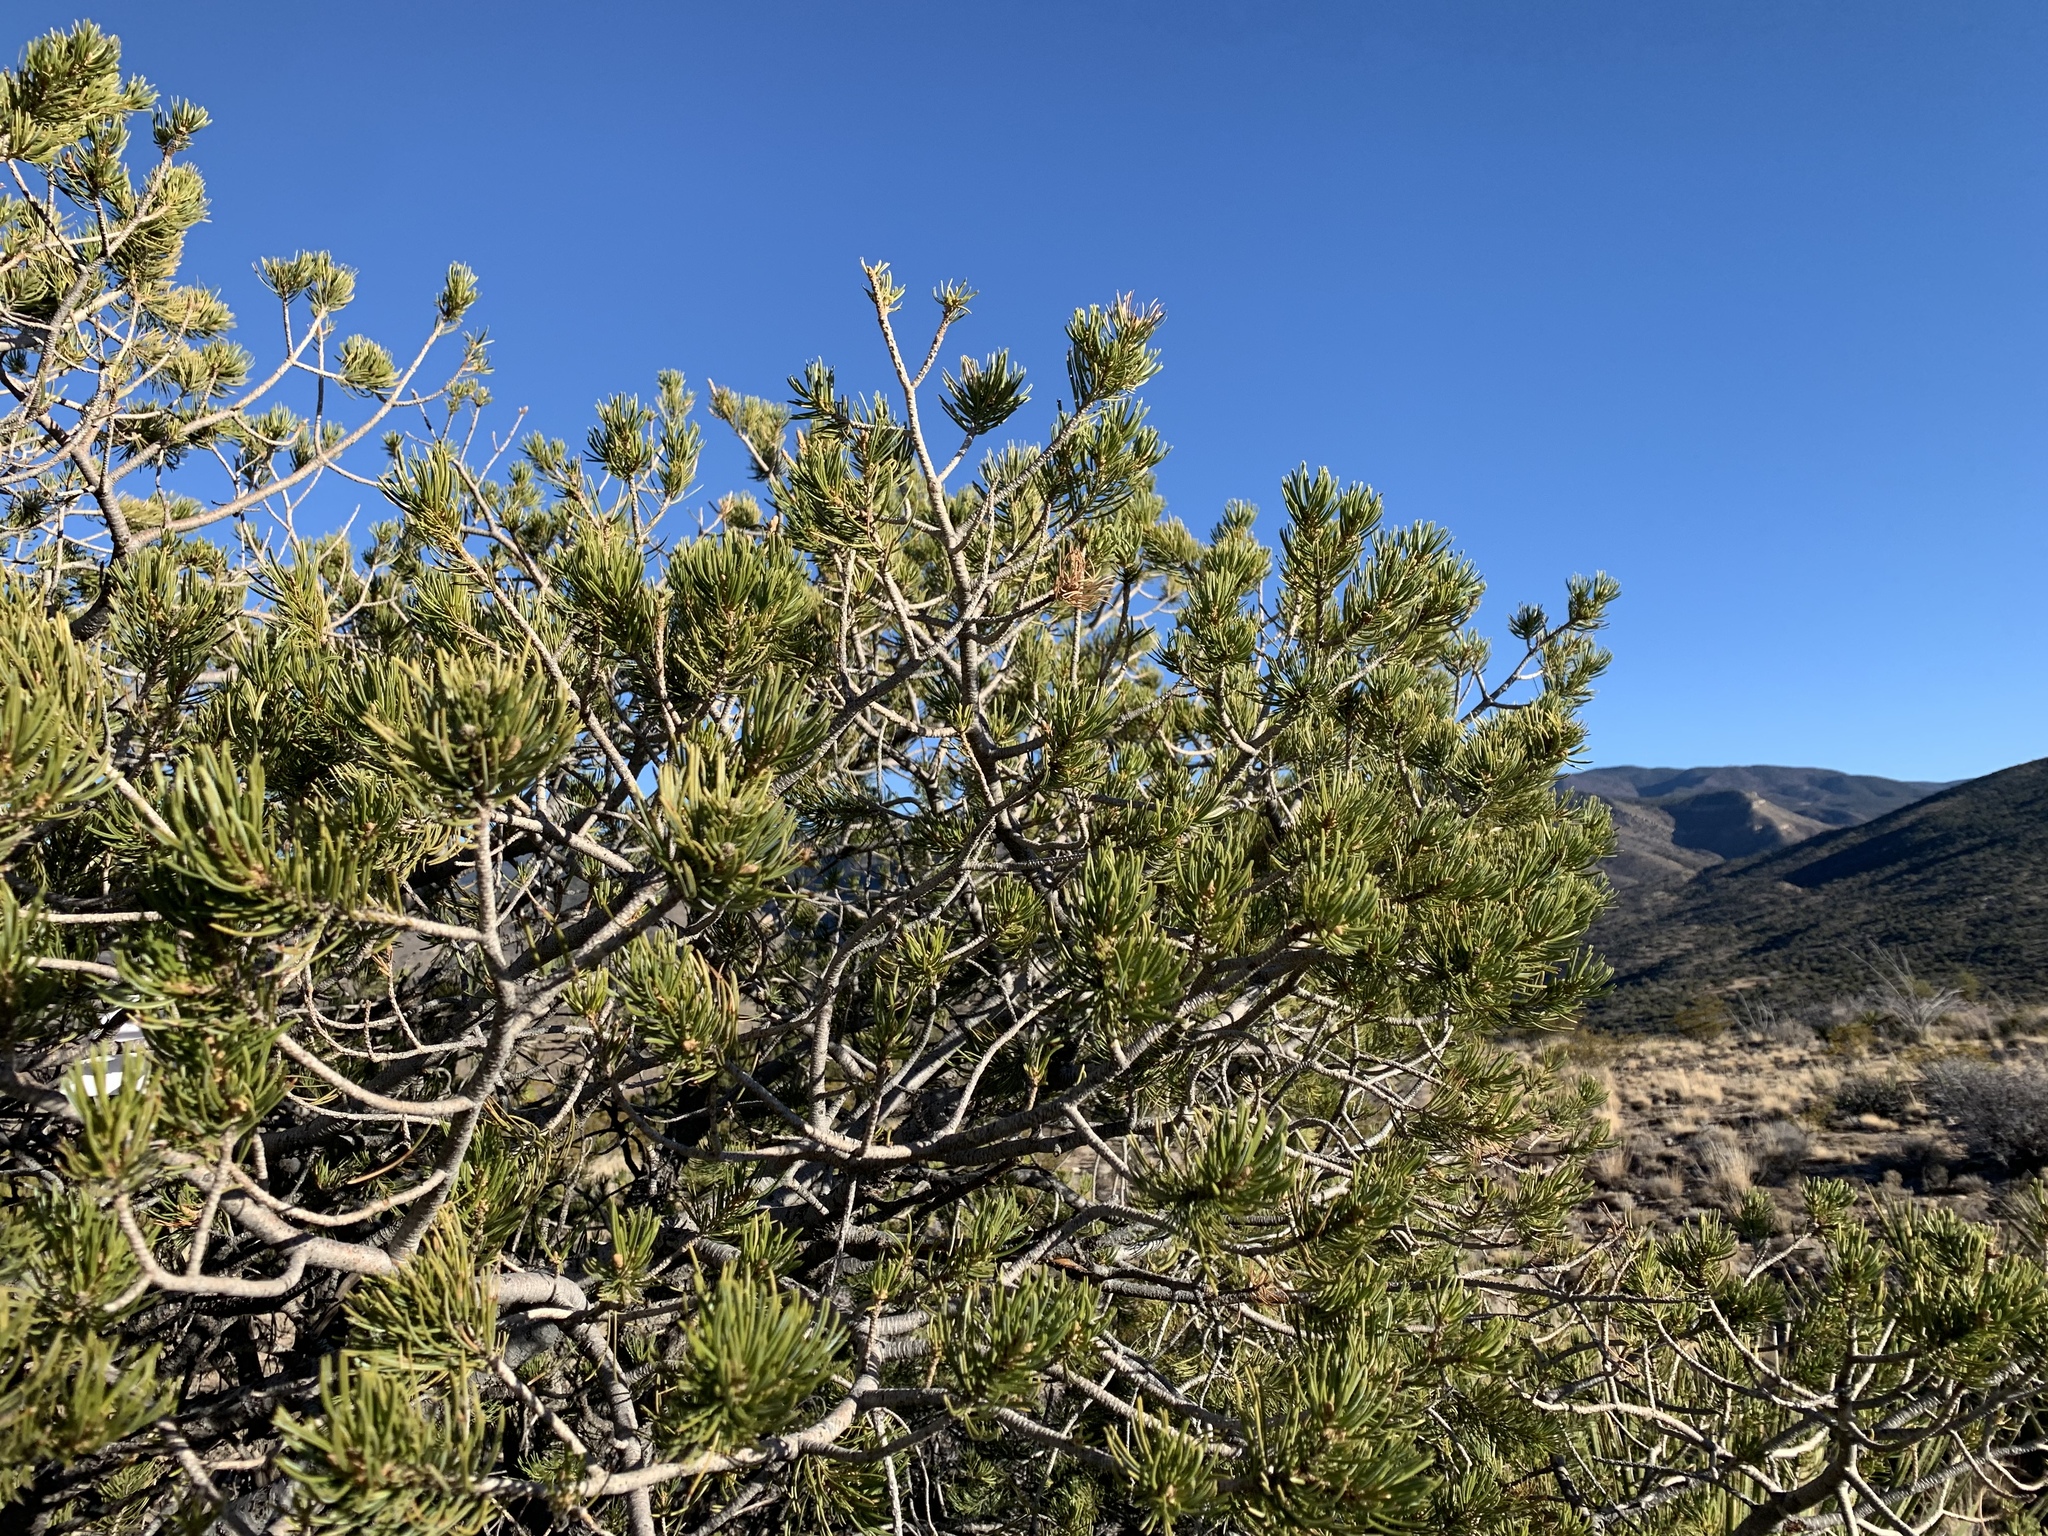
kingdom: Plantae
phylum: Tracheophyta
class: Pinopsida
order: Pinales
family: Pinaceae
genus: Pinus
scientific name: Pinus edulis
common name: Colorado pinyon
